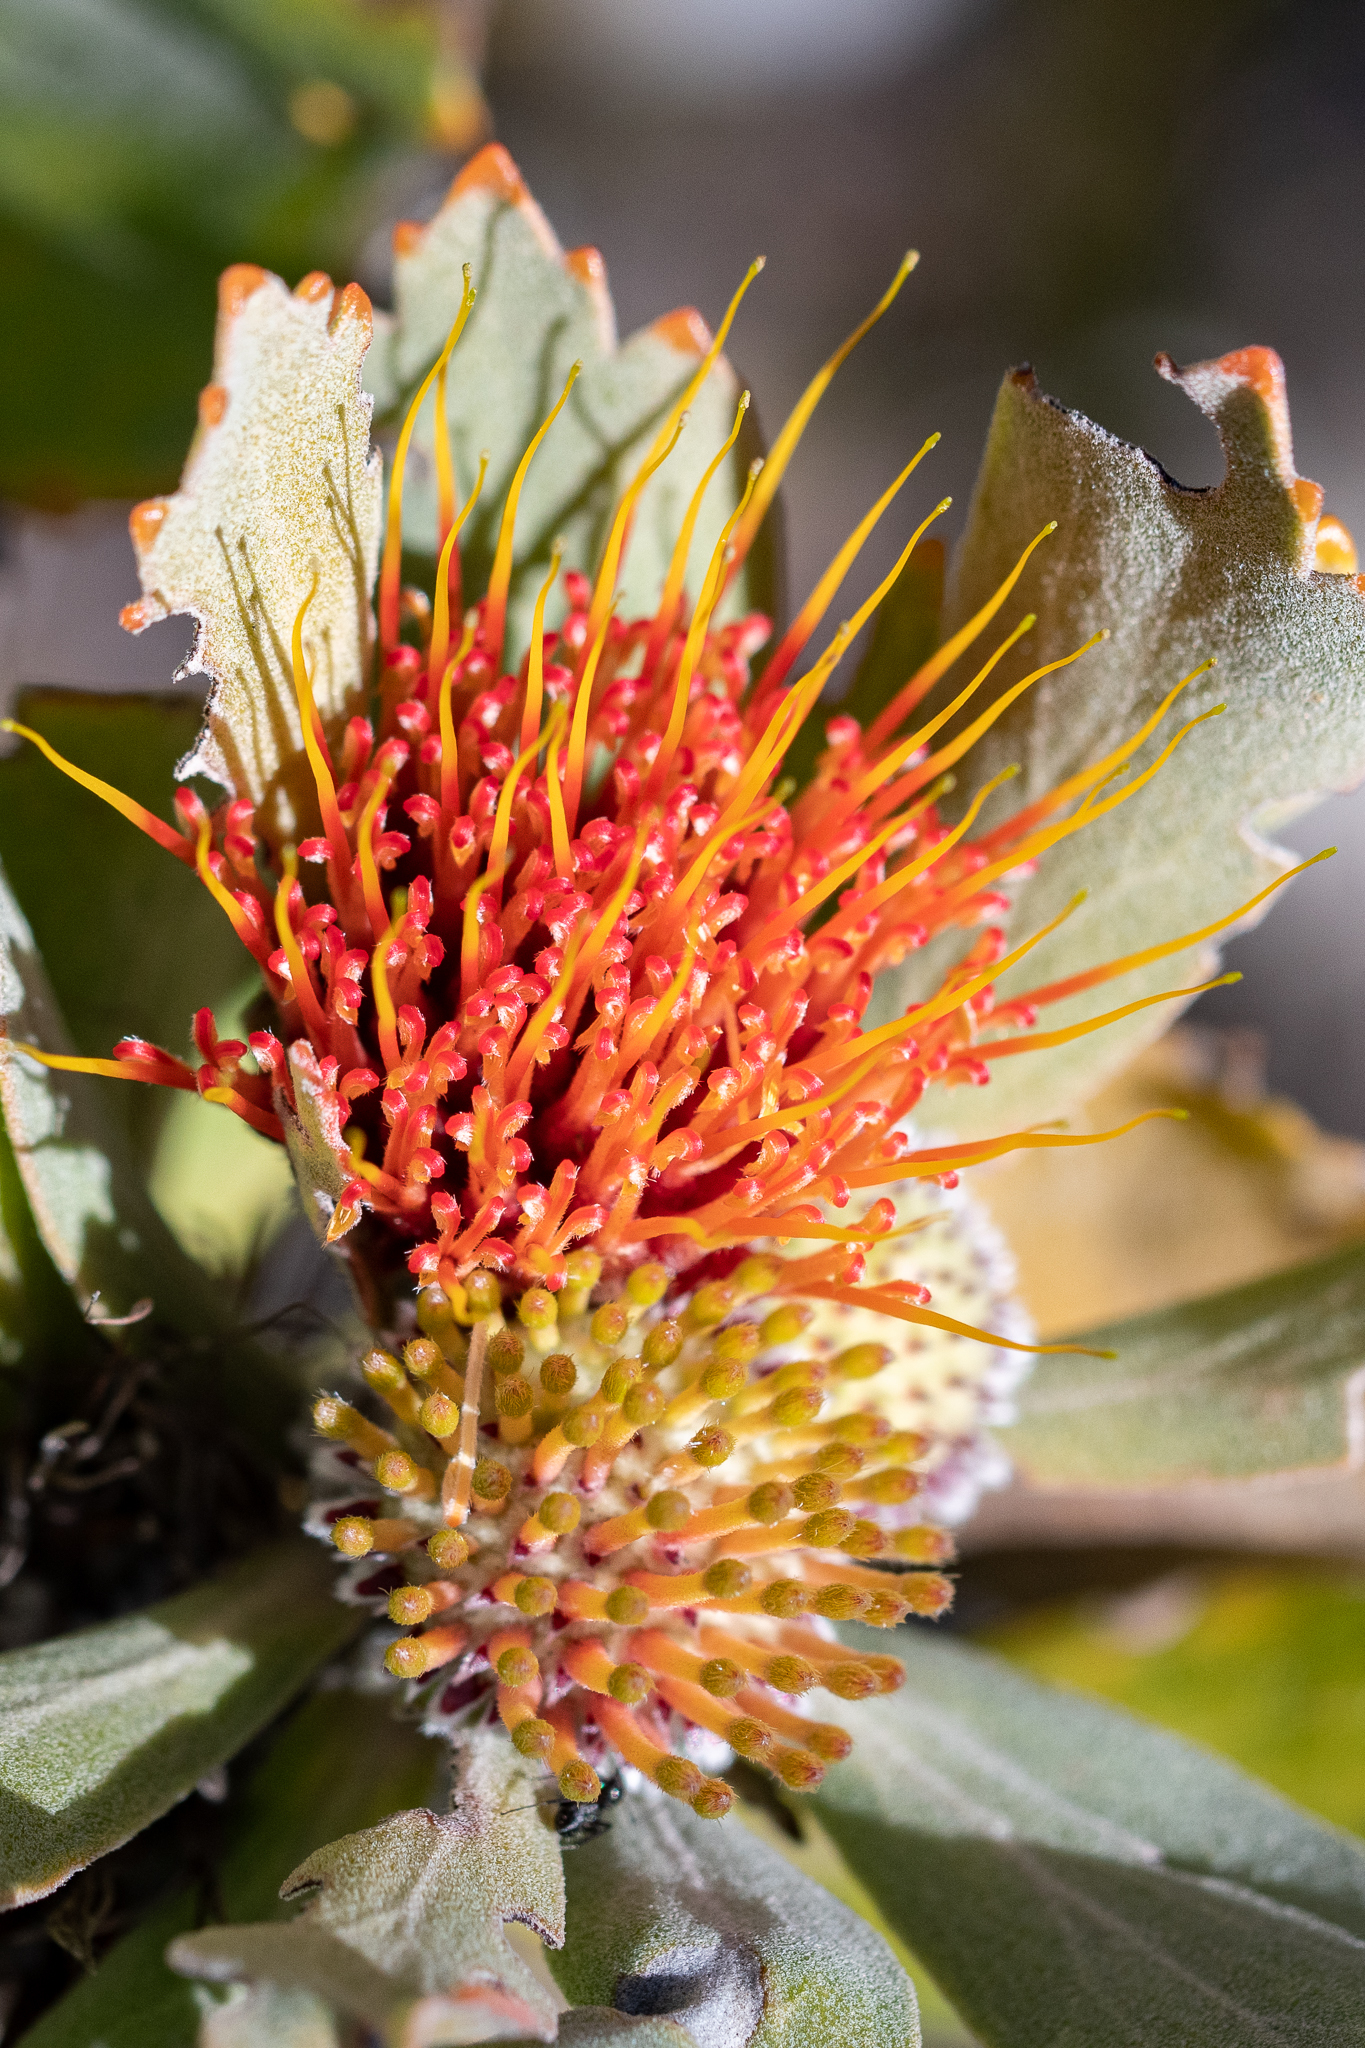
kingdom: Plantae
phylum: Tracheophyta
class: Magnoliopsida
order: Proteales
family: Proteaceae
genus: Leucospermum
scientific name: Leucospermum mundii
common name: Langeberg pincushion
